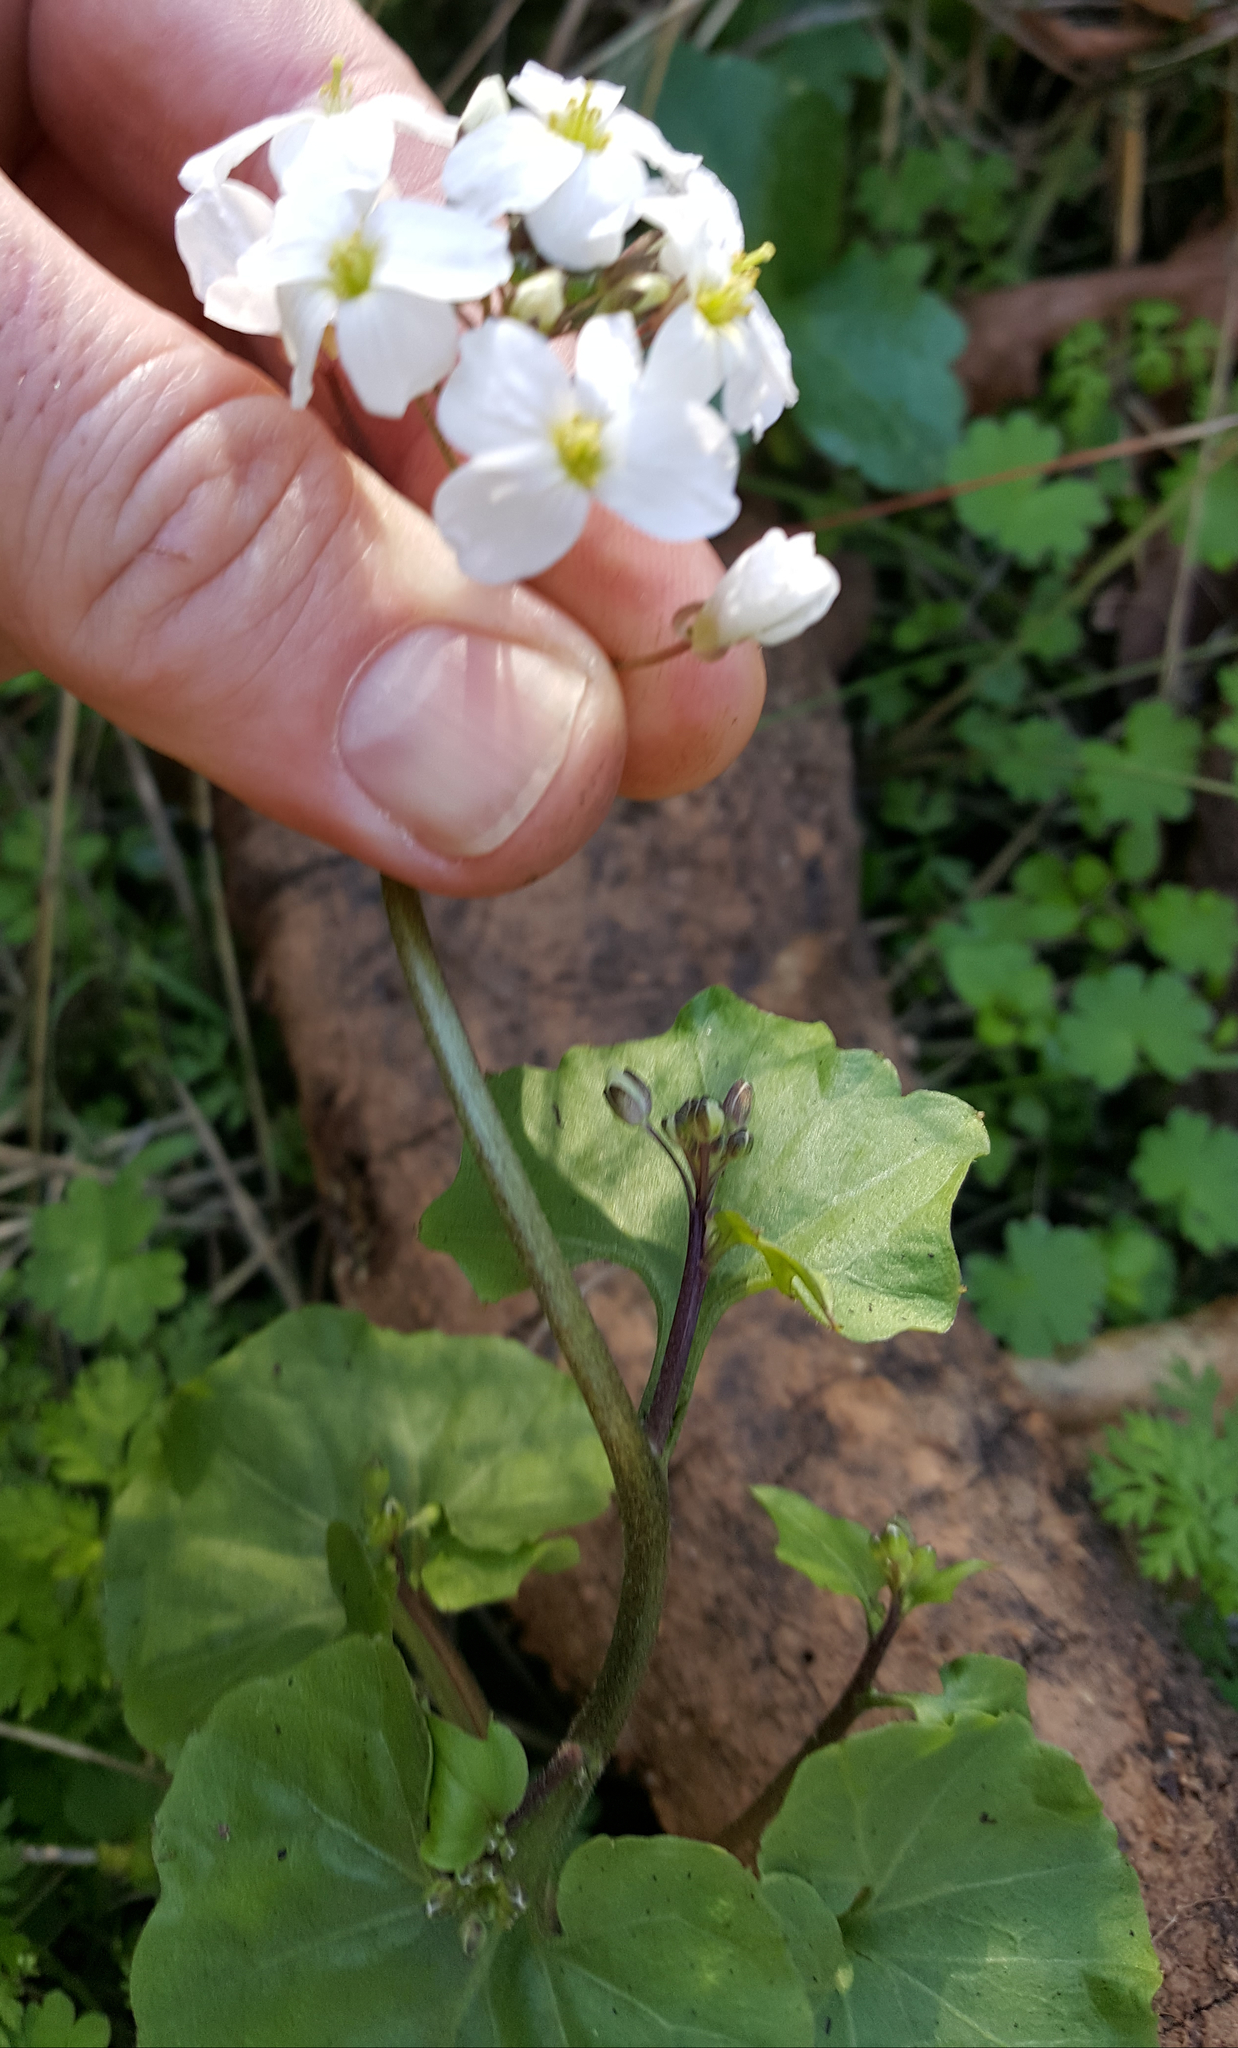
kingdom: Plantae
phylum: Tracheophyta
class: Magnoliopsida
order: Brassicales
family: Brassicaceae
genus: Cardamine
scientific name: Cardamine californica
